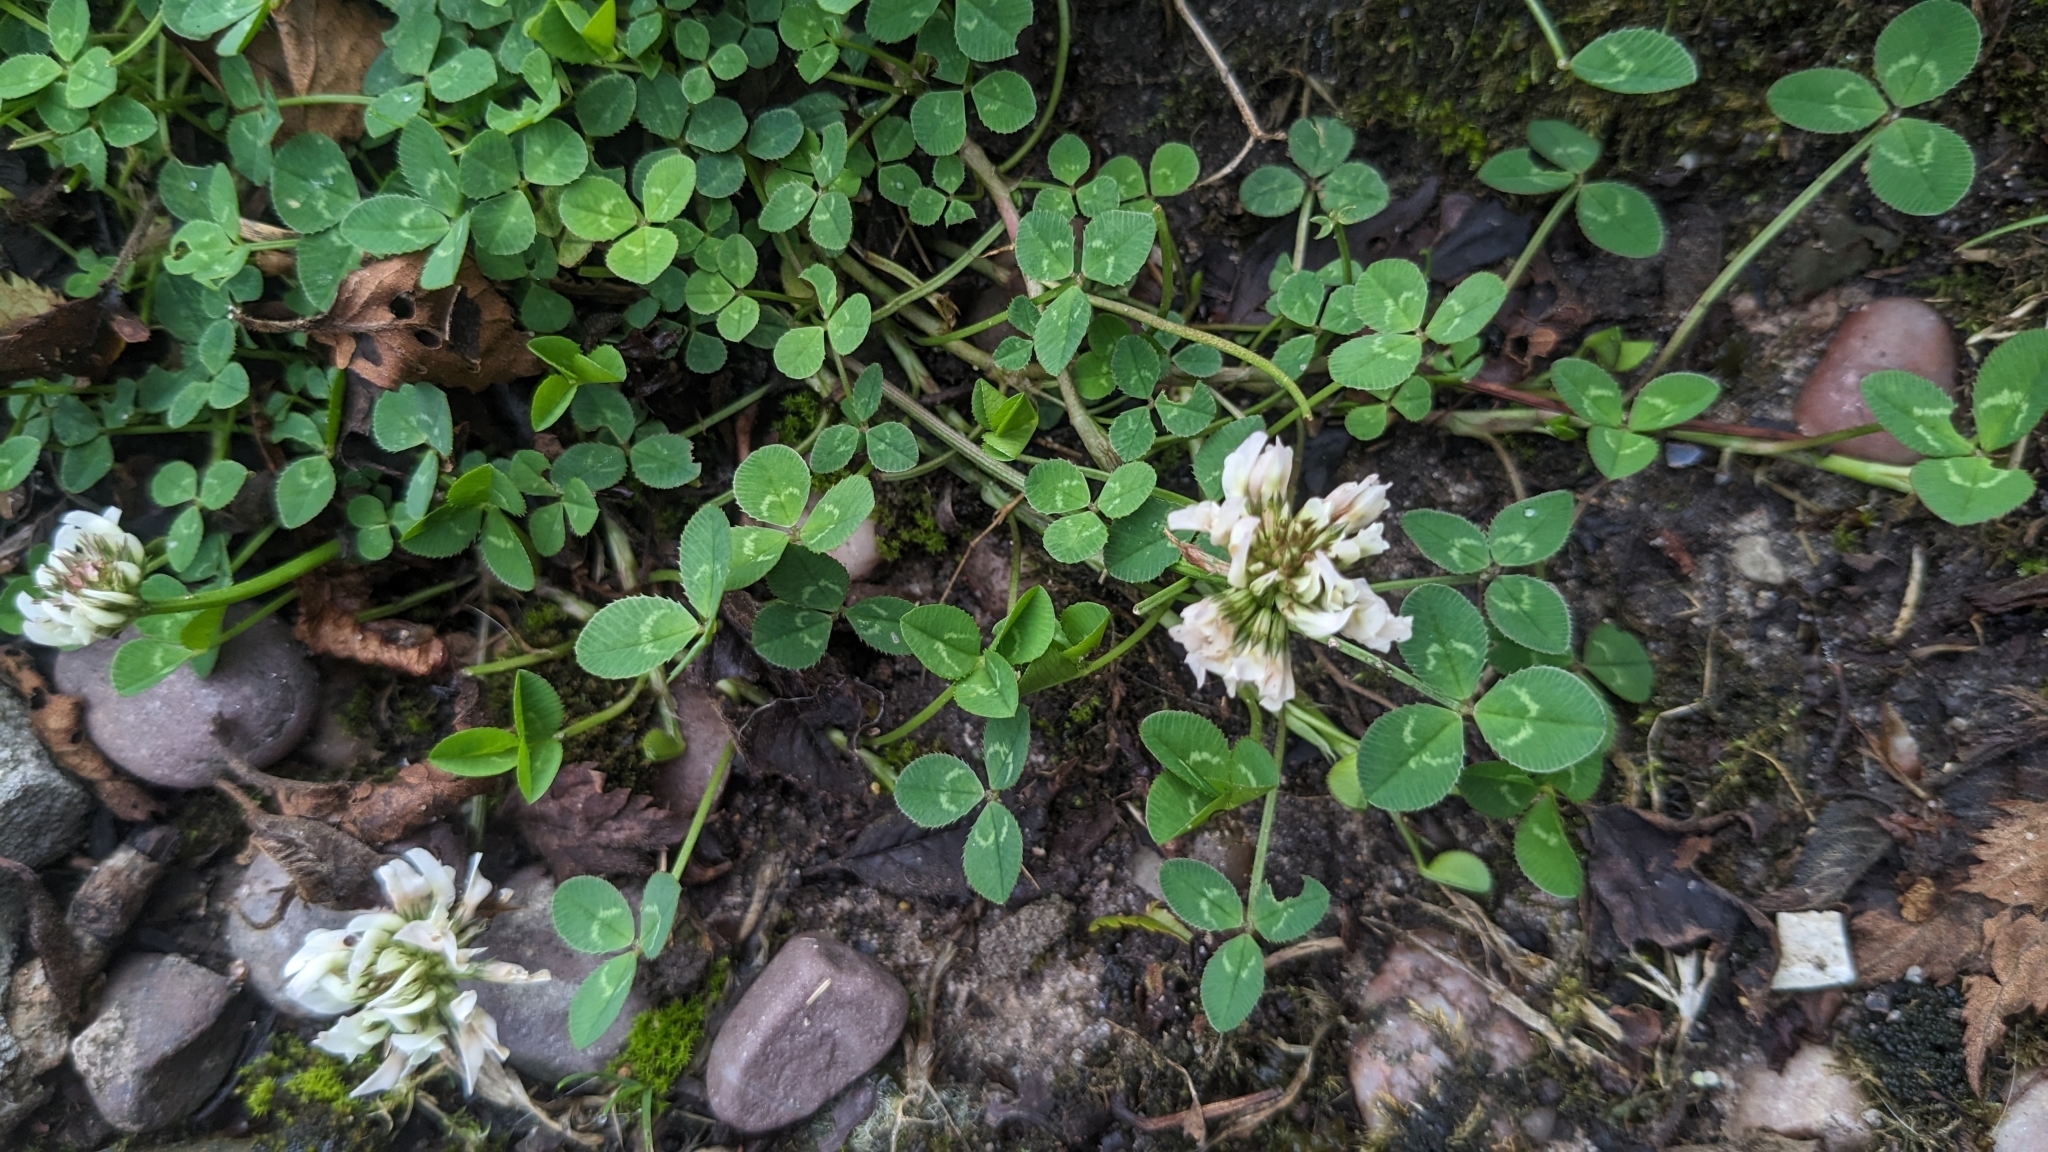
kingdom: Plantae
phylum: Tracheophyta
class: Magnoliopsida
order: Fabales
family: Fabaceae
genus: Trifolium
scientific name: Trifolium repens
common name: White clover
